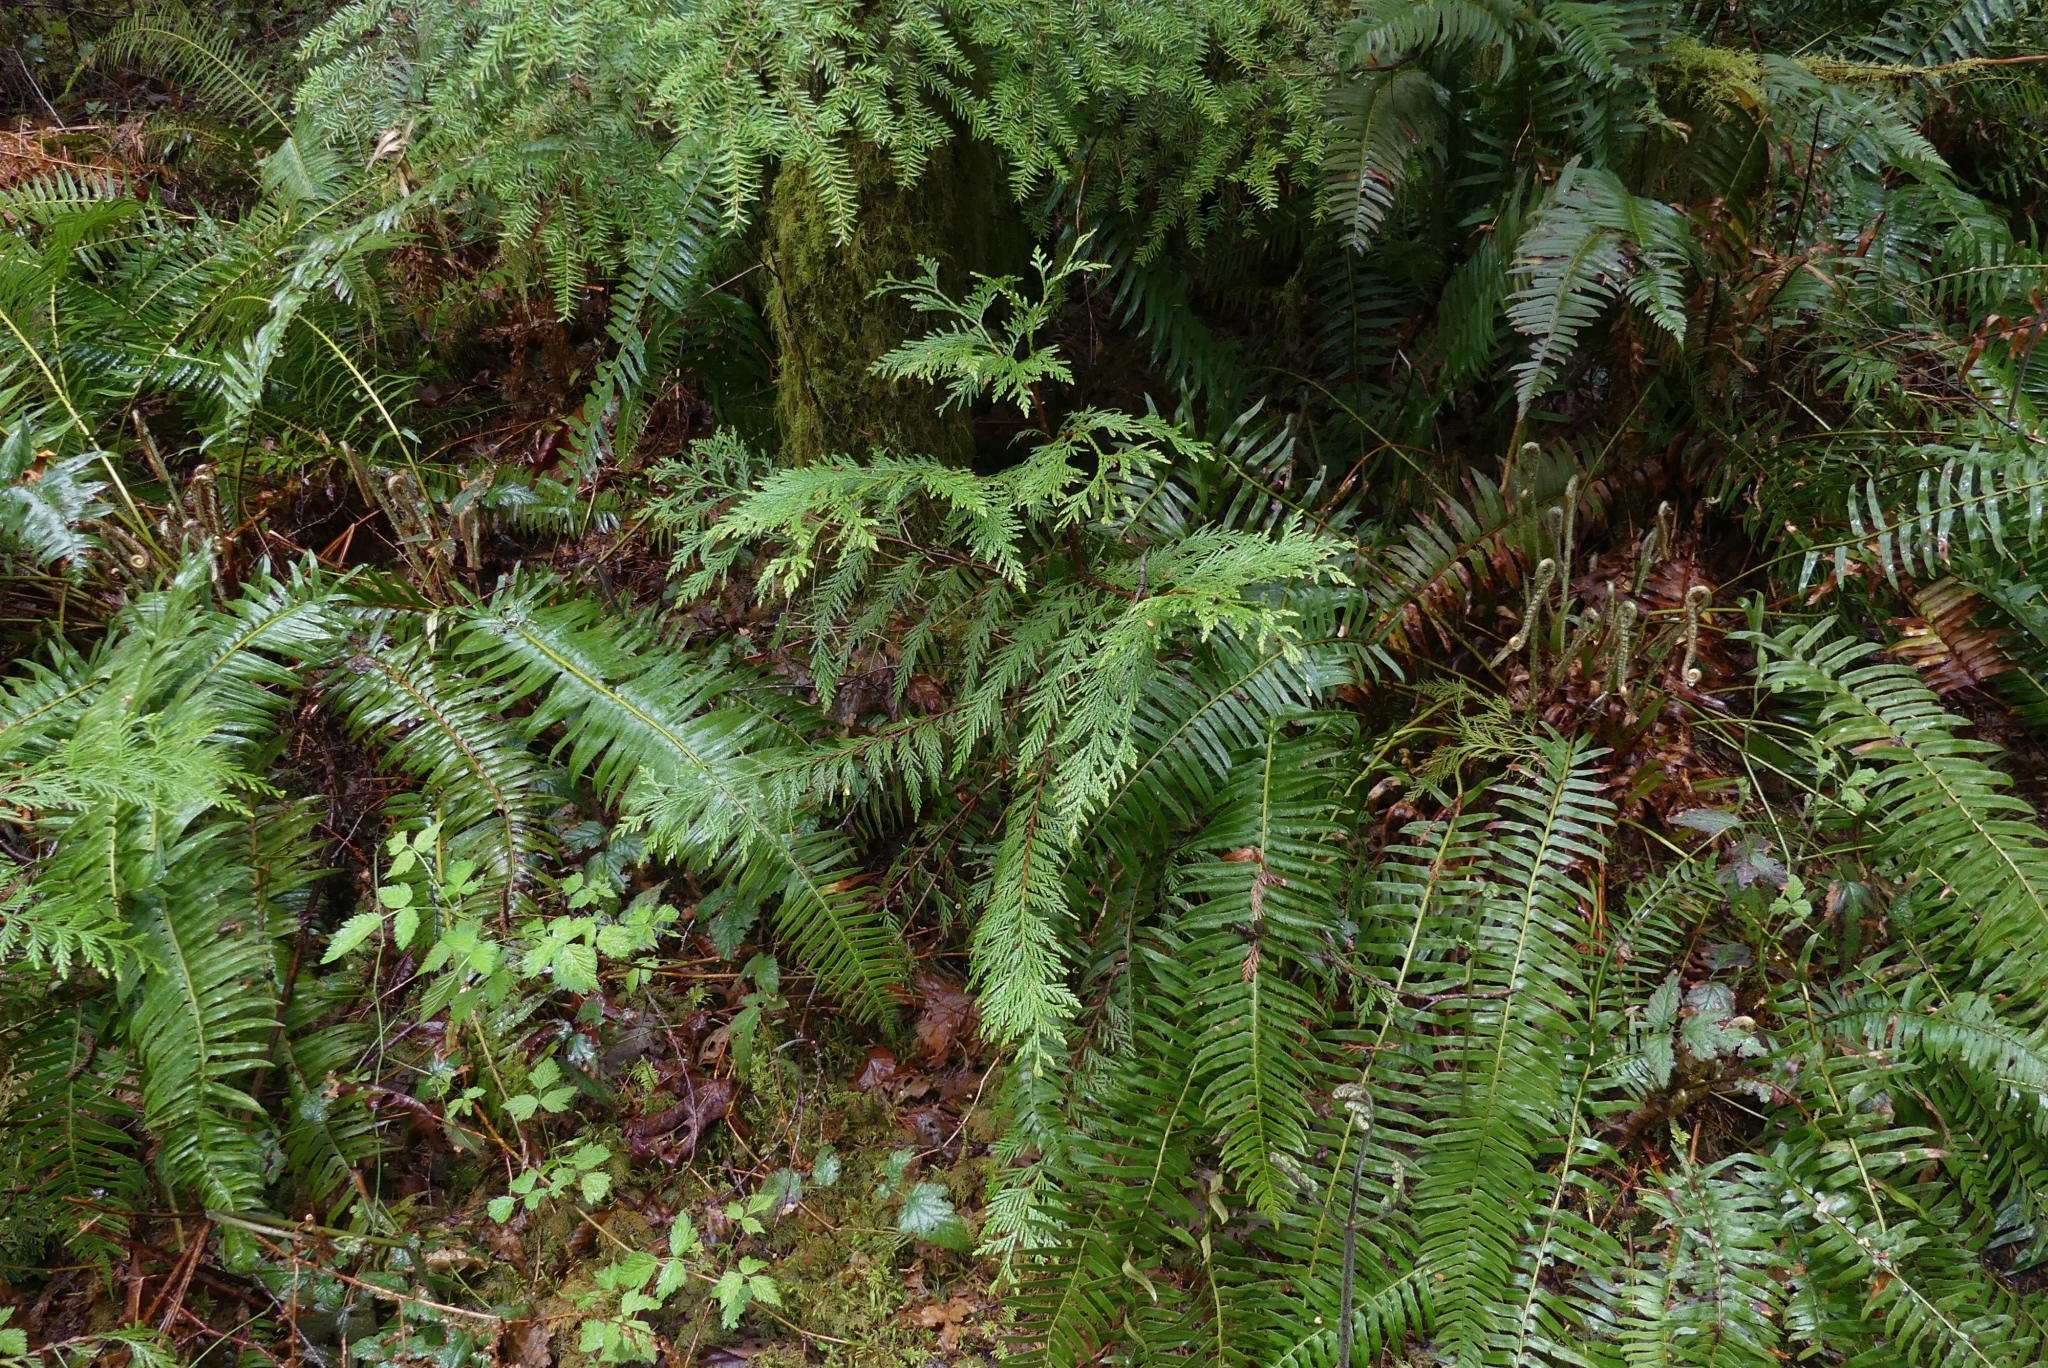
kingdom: Plantae
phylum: Tracheophyta
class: Pinopsida
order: Pinales
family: Cupressaceae
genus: Thuja
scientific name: Thuja plicata
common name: Western red-cedar
